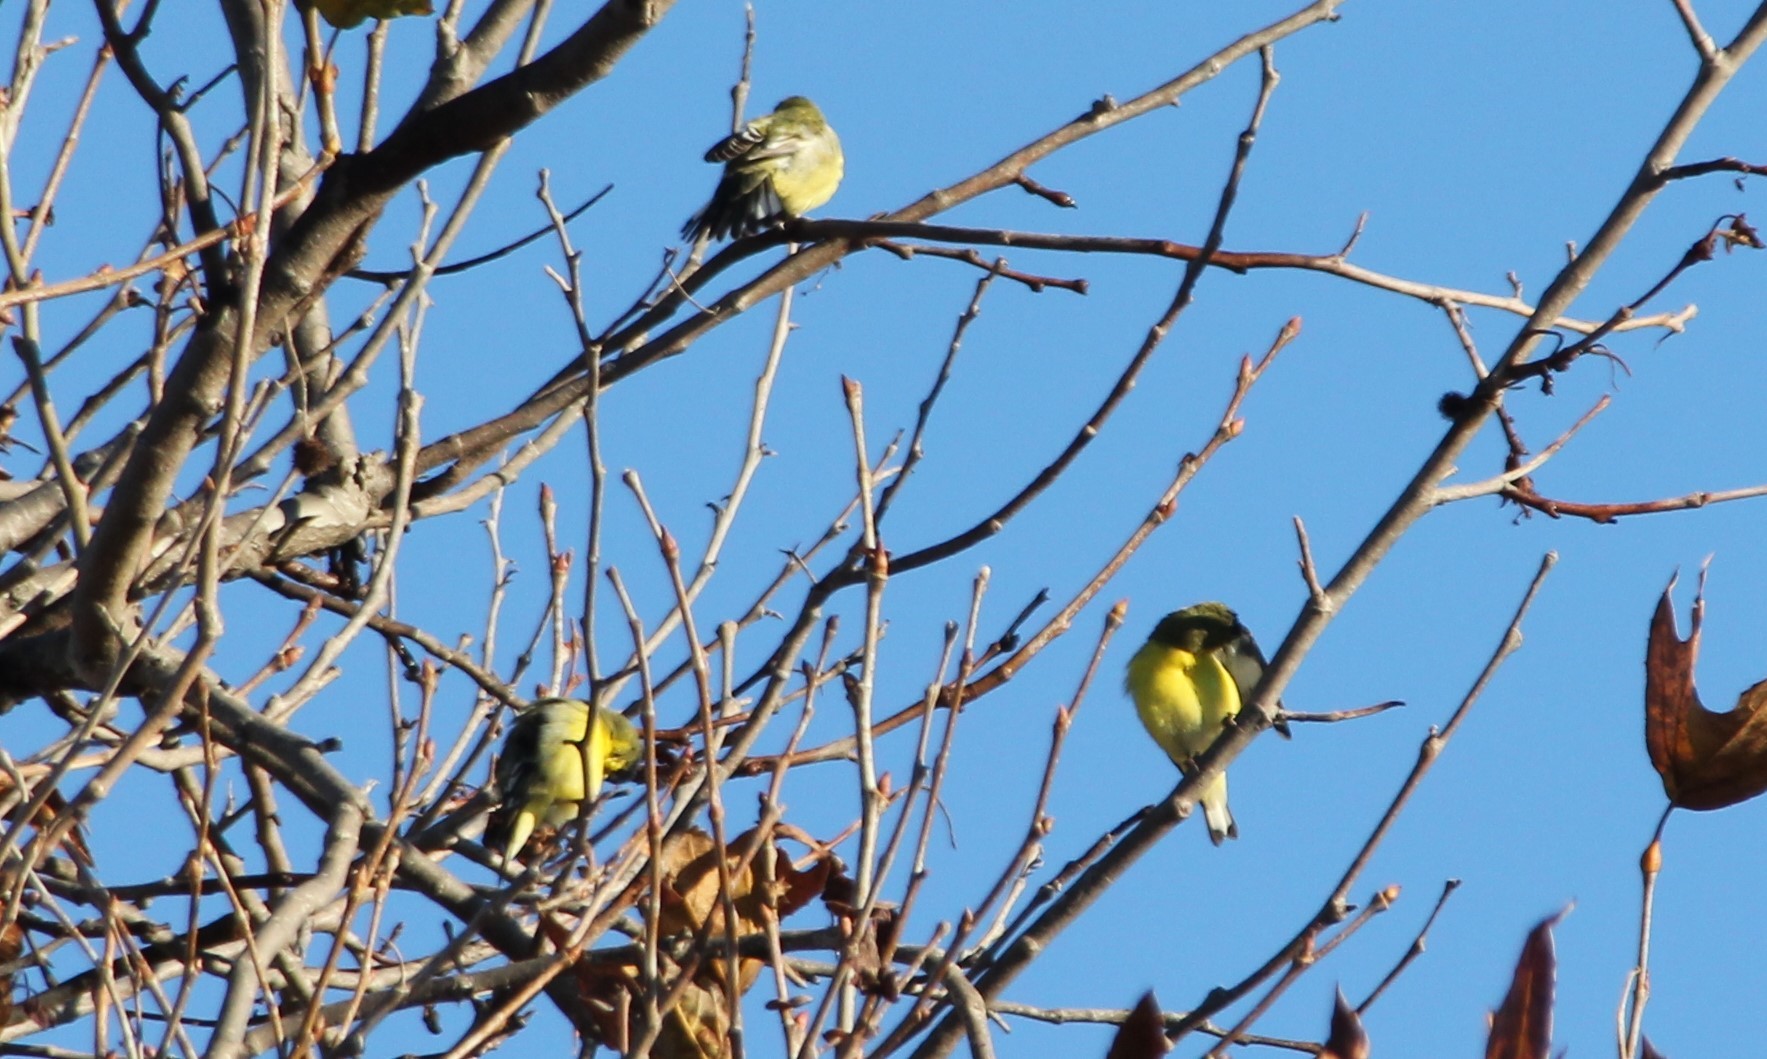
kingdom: Animalia
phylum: Chordata
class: Aves
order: Passeriformes
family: Fringillidae
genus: Spinus
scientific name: Spinus psaltria
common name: Lesser goldfinch
